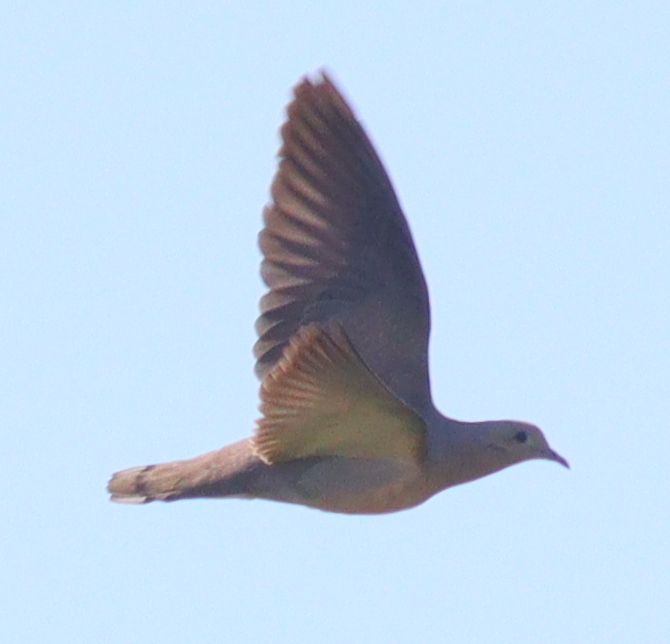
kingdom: Animalia
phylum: Chordata
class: Aves
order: Columbiformes
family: Columbidae
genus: Zenaida
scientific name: Zenaida auriculata
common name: Eared dove
